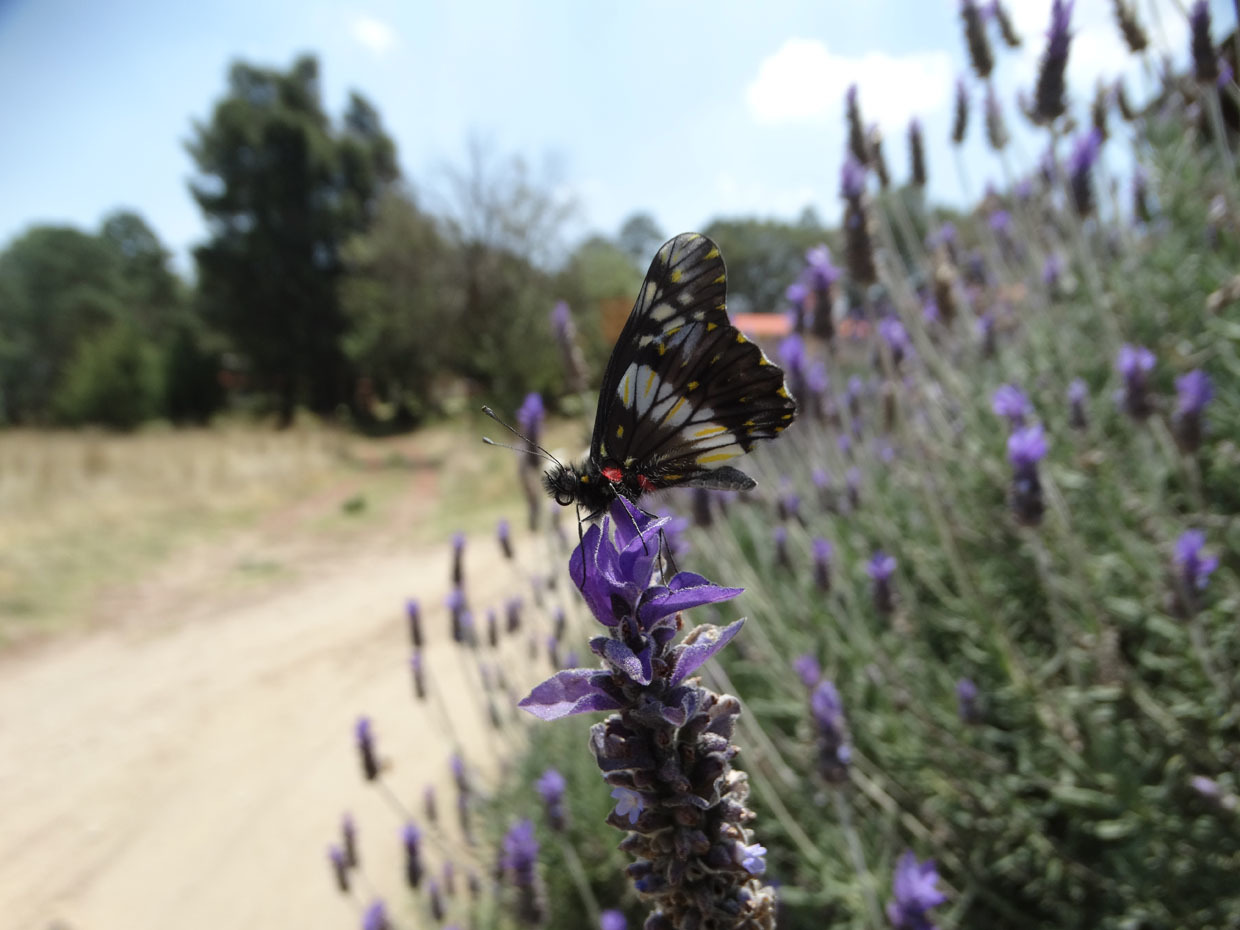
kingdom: Animalia
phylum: Arthropoda
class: Insecta
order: Lepidoptera
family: Pieridae
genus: Archonias
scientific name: Archonias nimbice
